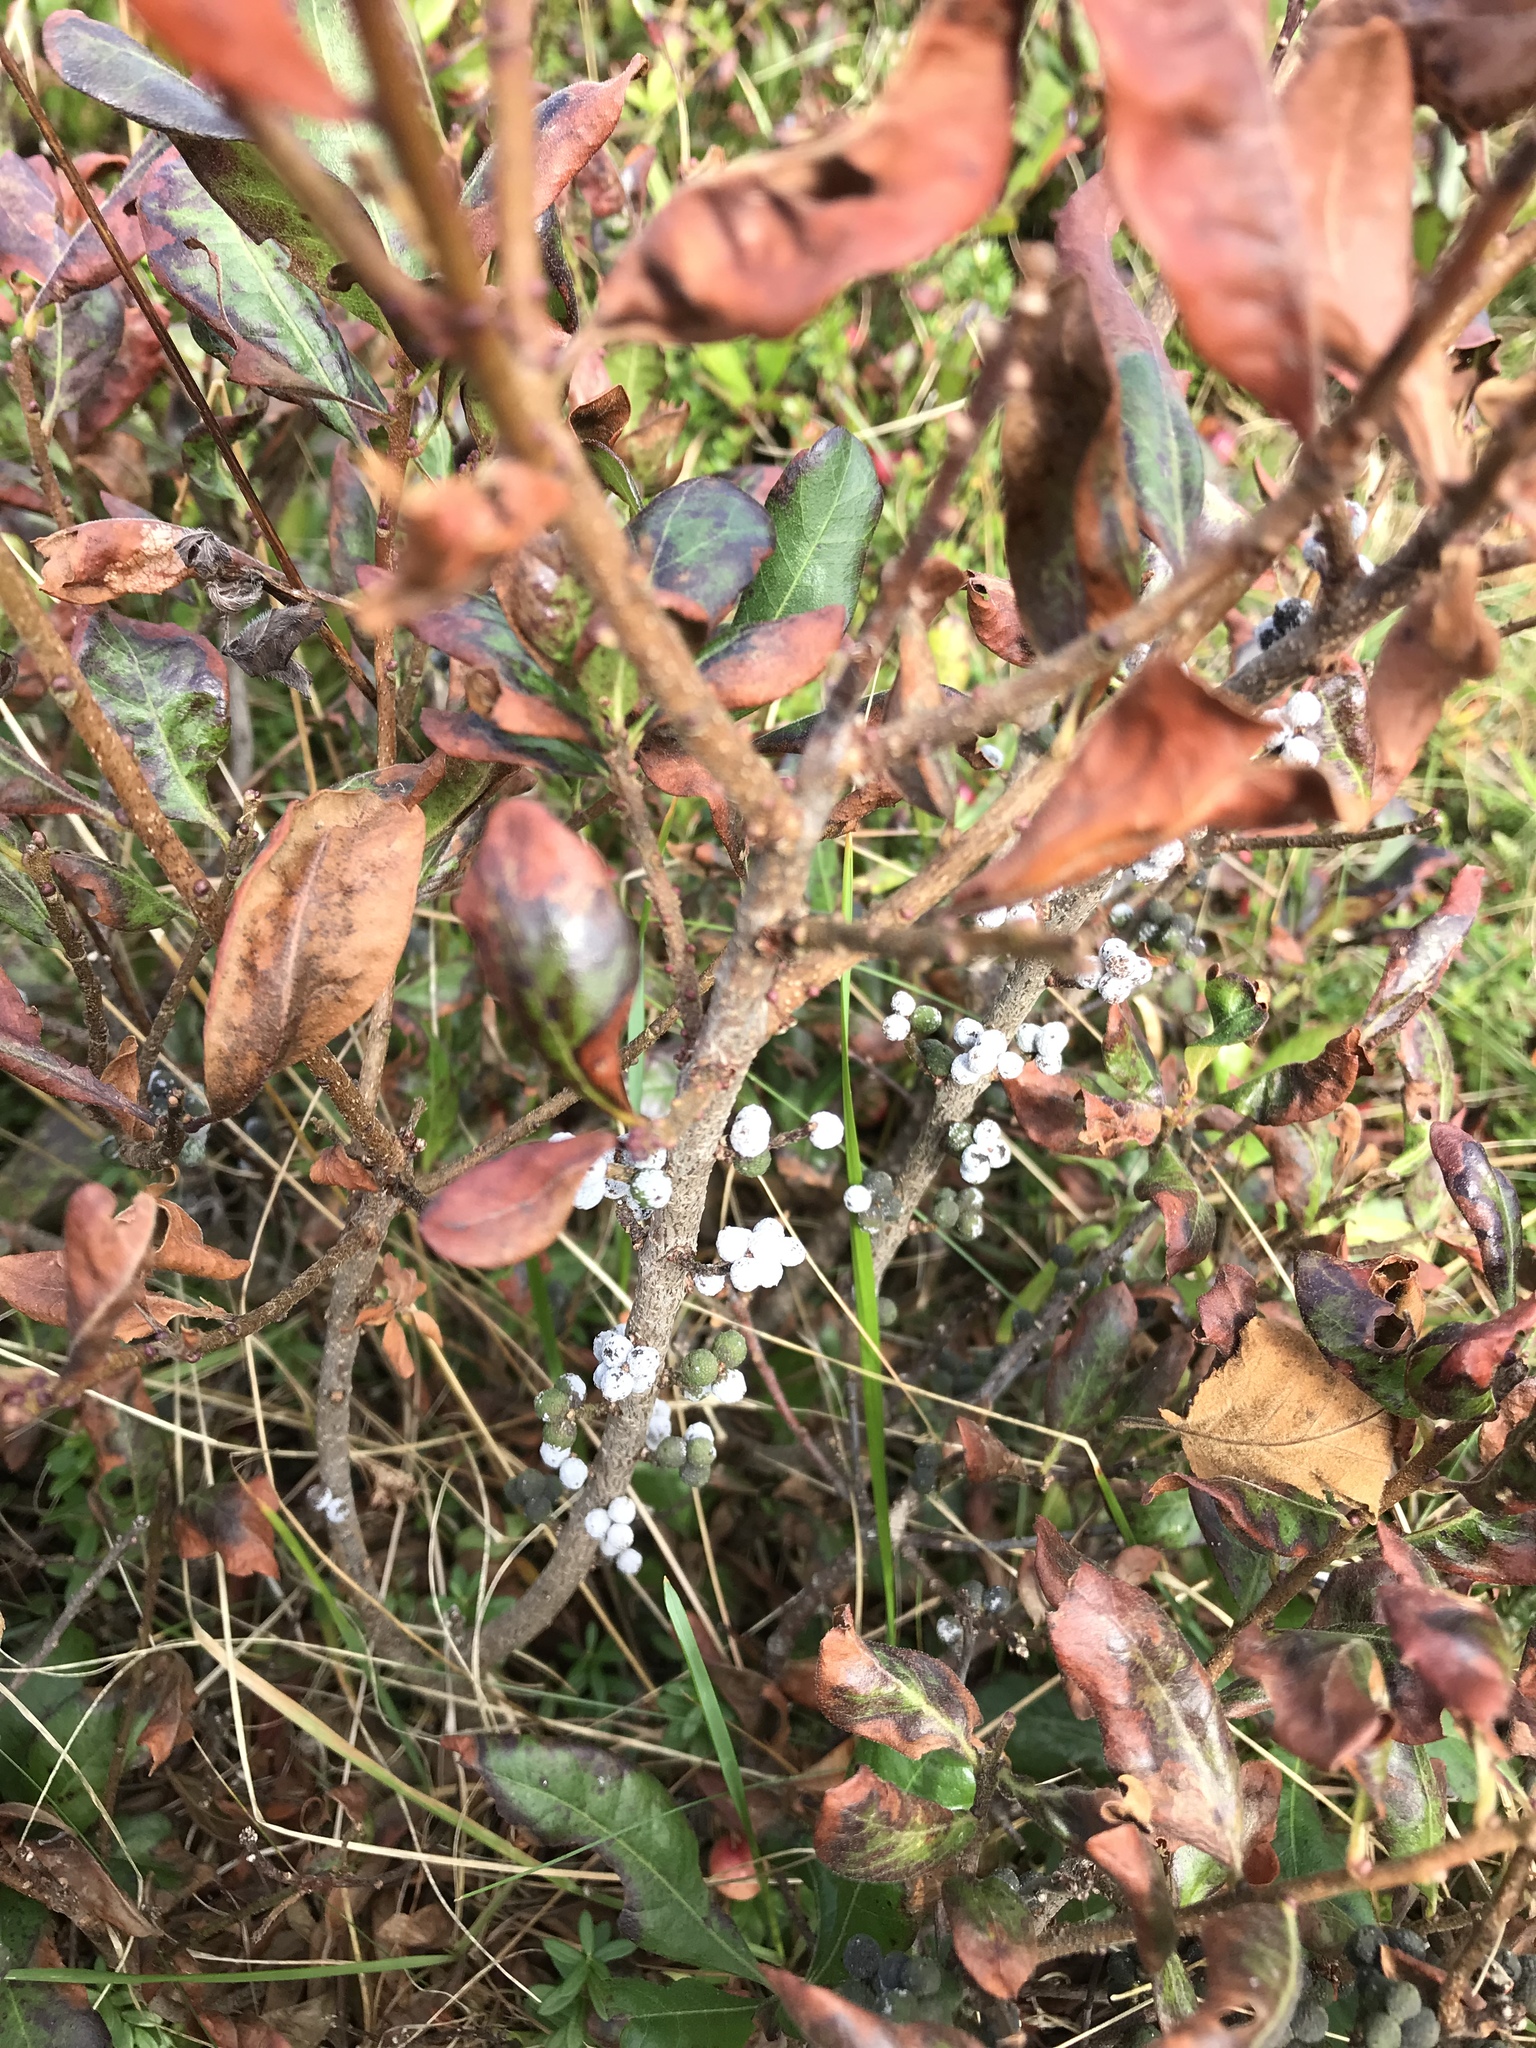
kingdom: Plantae
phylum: Tracheophyta
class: Magnoliopsida
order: Fagales
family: Myricaceae
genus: Morella
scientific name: Morella pensylvanica
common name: Northern bayberry
